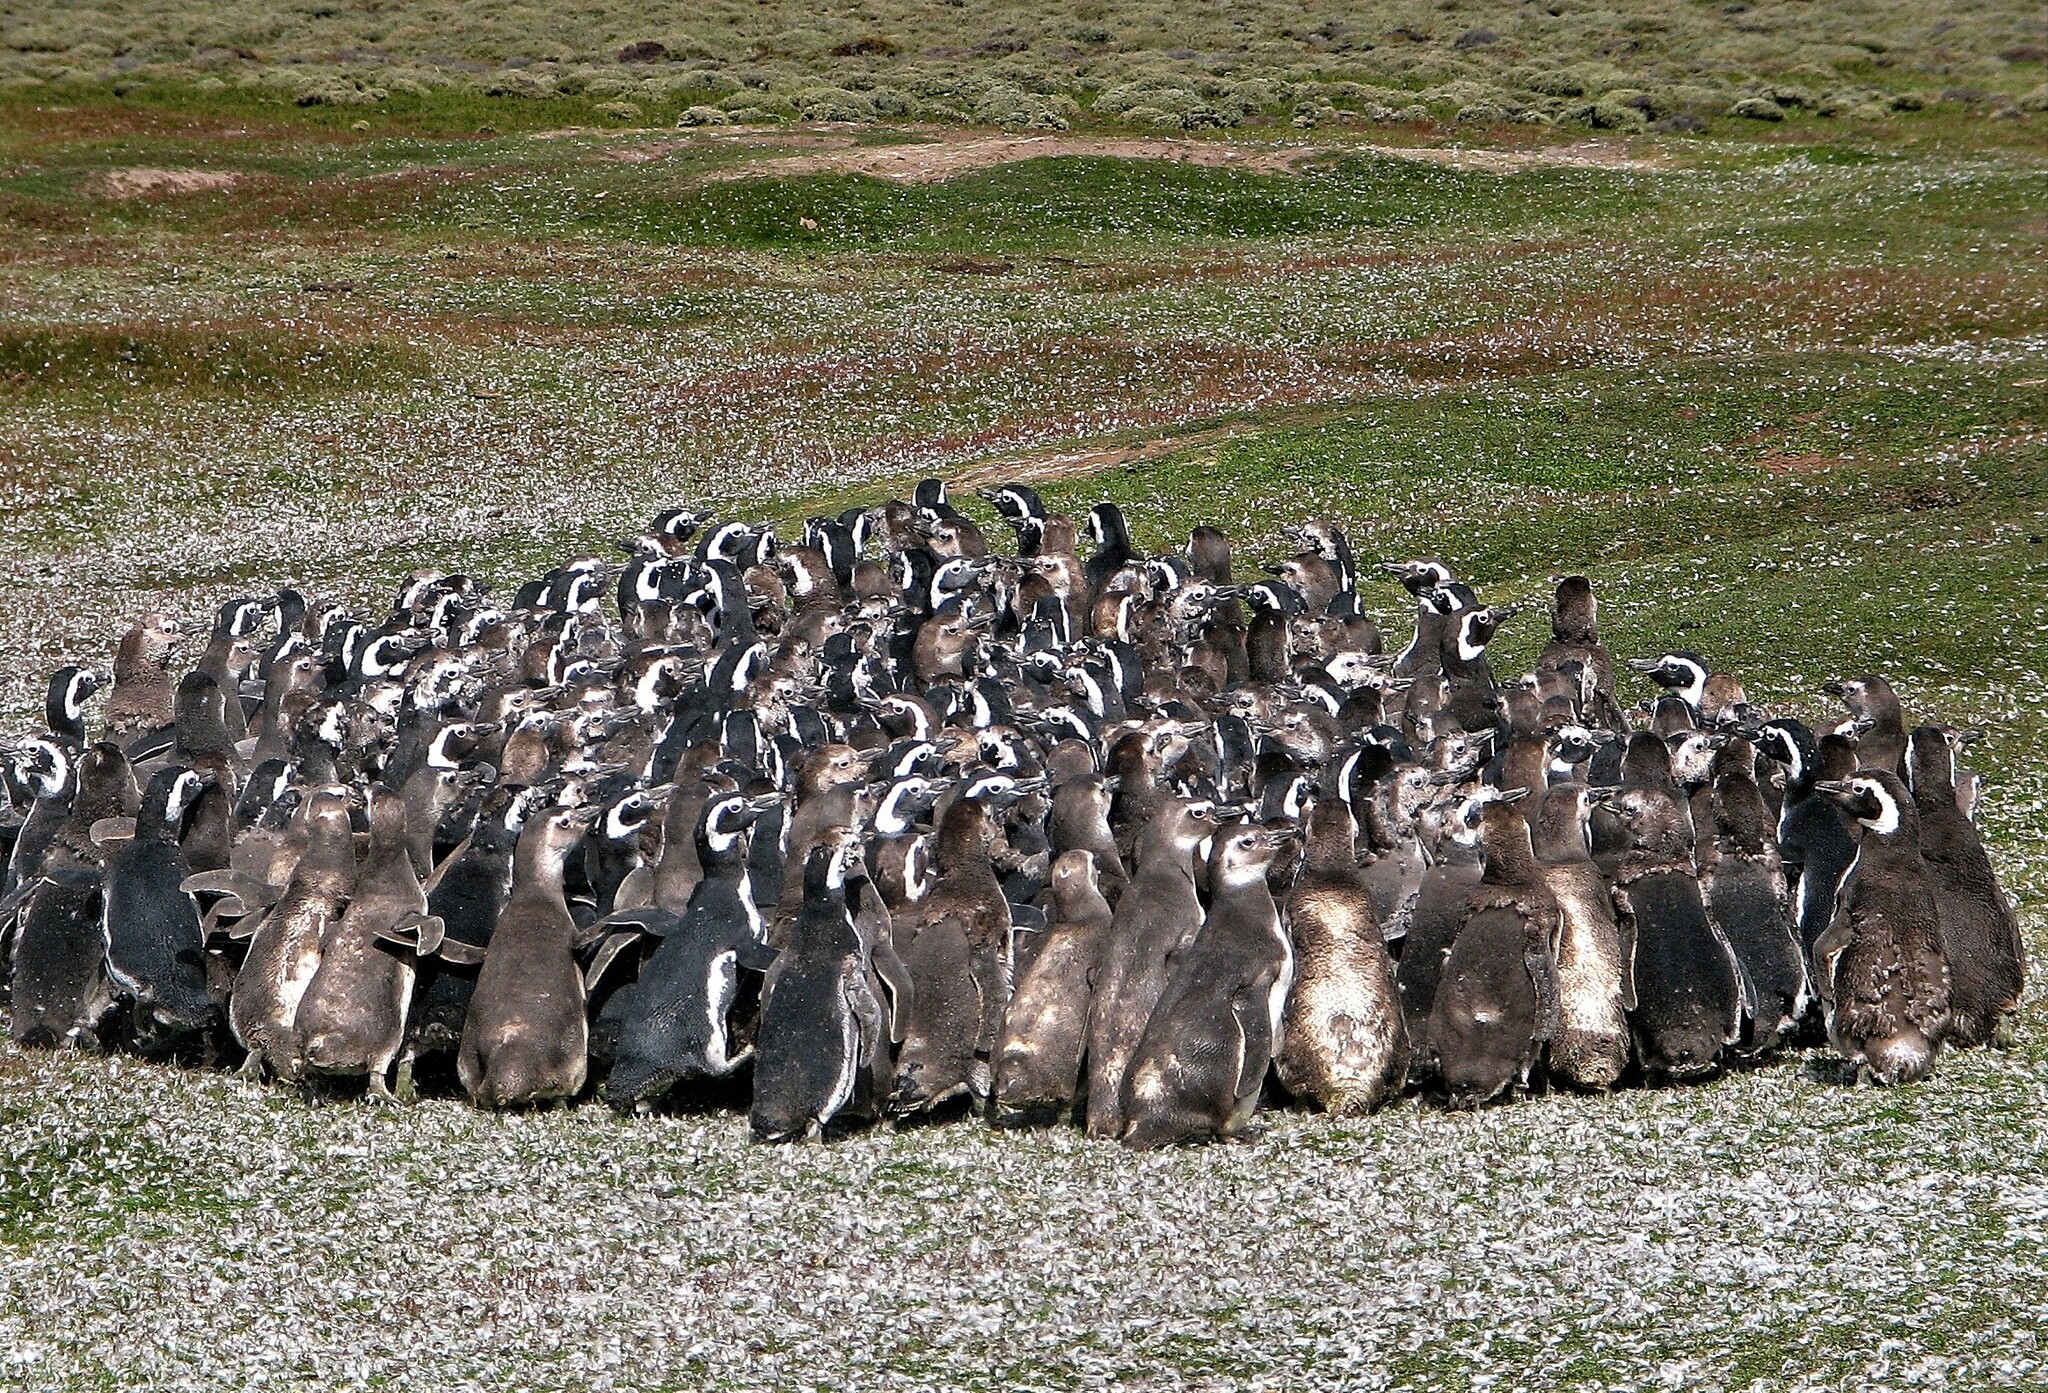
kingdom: Animalia
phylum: Chordata
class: Aves
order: Sphenisciformes
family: Spheniscidae
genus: Spheniscus
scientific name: Spheniscus magellanicus
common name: Magellanic penguin
